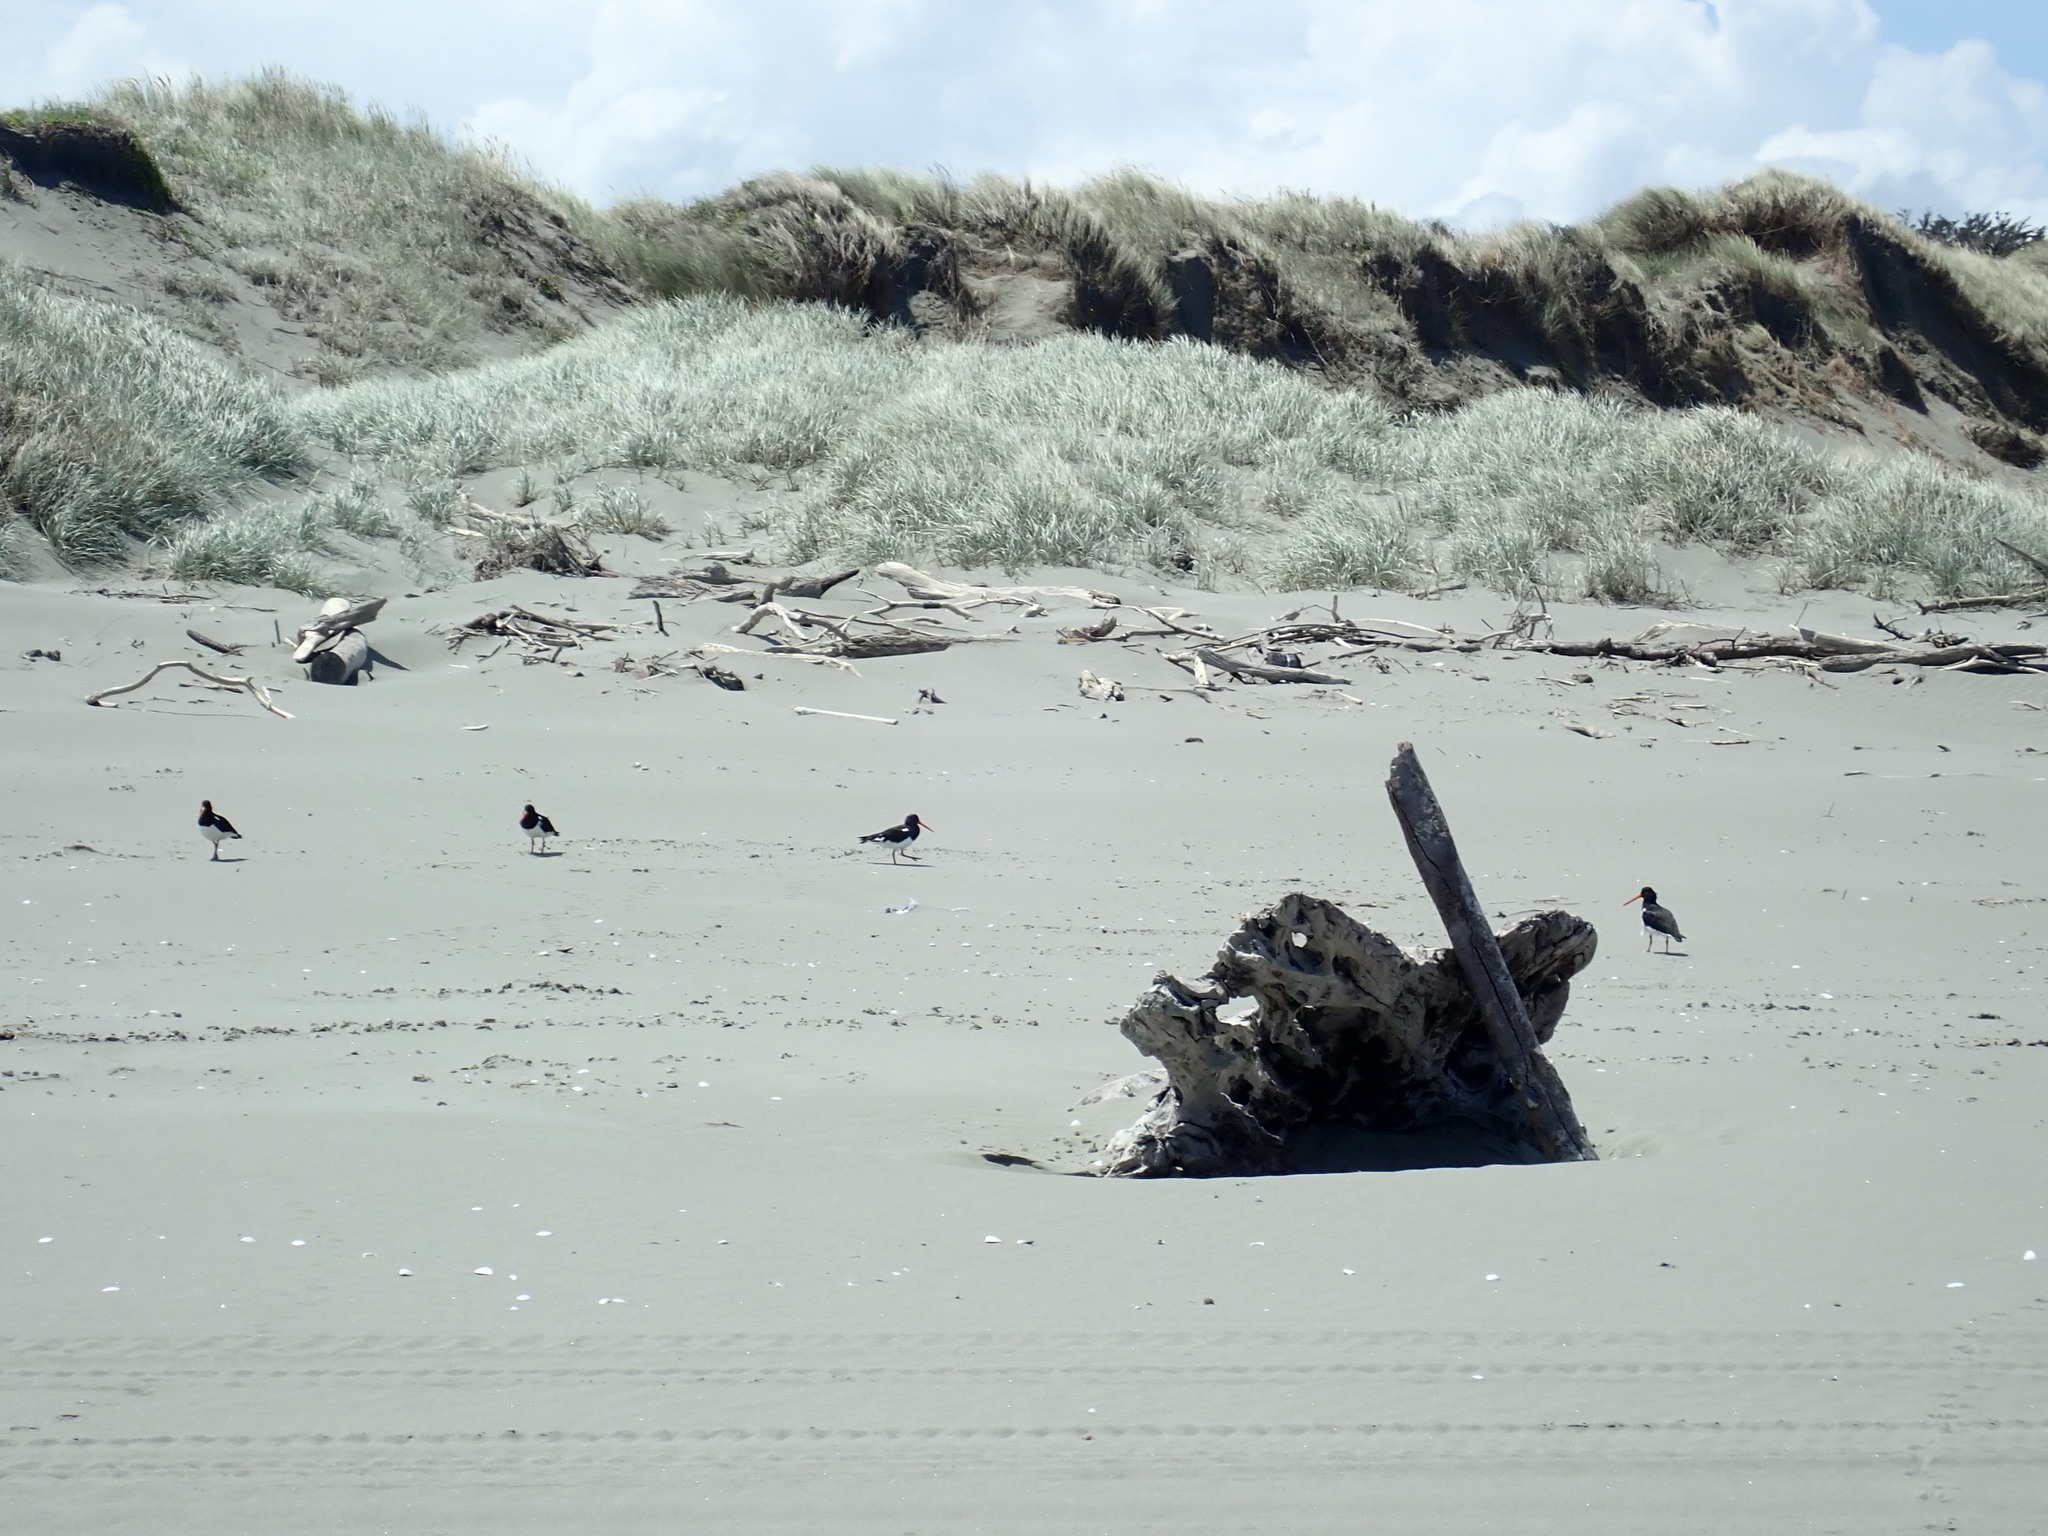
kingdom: Animalia
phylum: Chordata
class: Aves
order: Charadriiformes
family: Haematopodidae
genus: Haematopus
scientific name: Haematopus finschi
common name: South island oystercatcher
